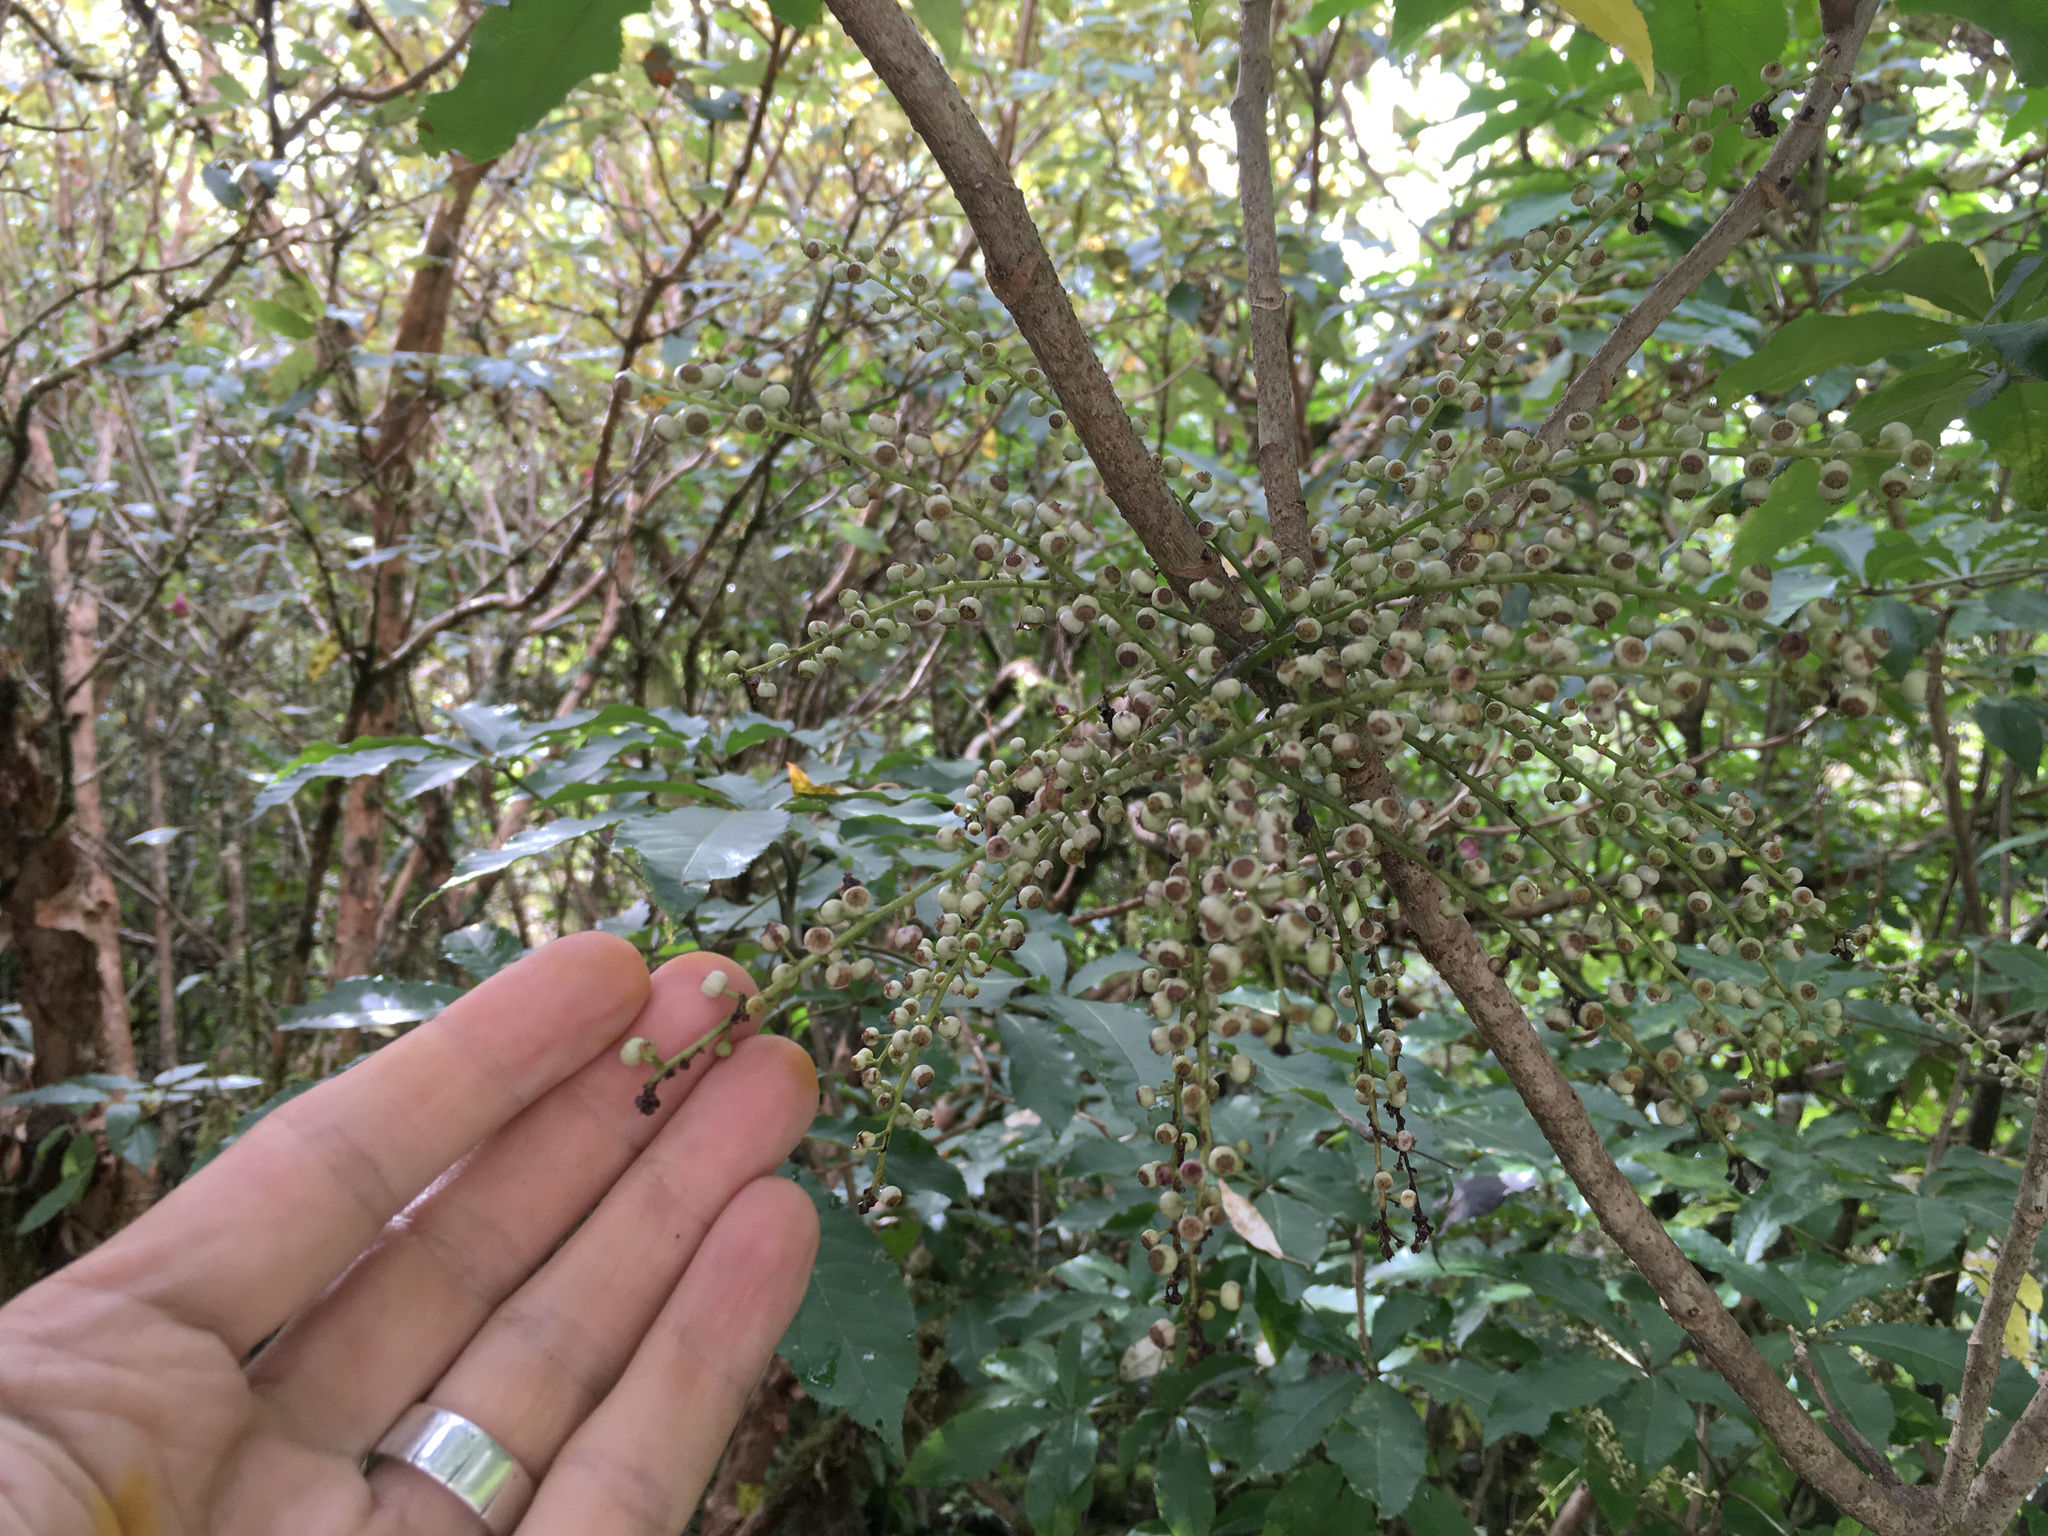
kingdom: Plantae
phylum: Tracheophyta
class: Magnoliopsida
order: Apiales
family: Araliaceae
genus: Schefflera
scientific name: Schefflera digitata
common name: Pate
